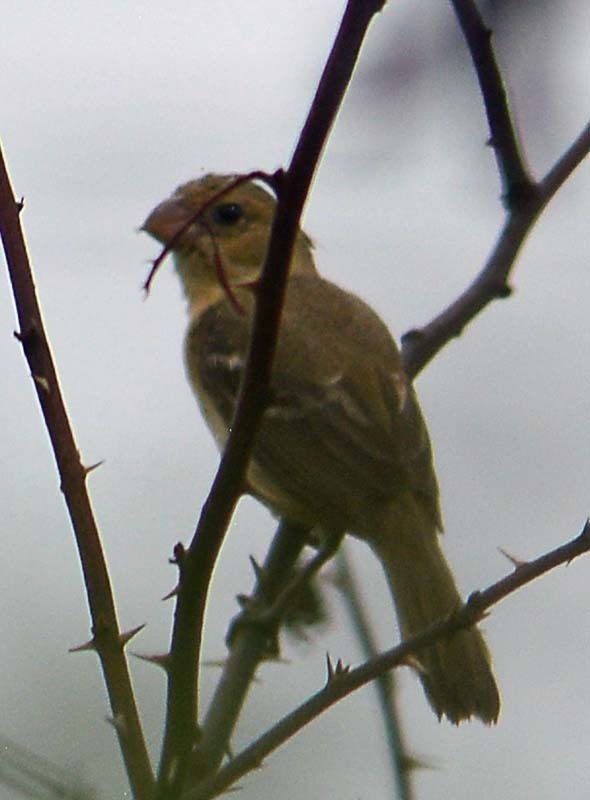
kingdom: Animalia
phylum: Chordata
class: Aves
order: Passeriformes
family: Thraupidae
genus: Sporophila
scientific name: Sporophila morelleti
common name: Morelet's seedeater
